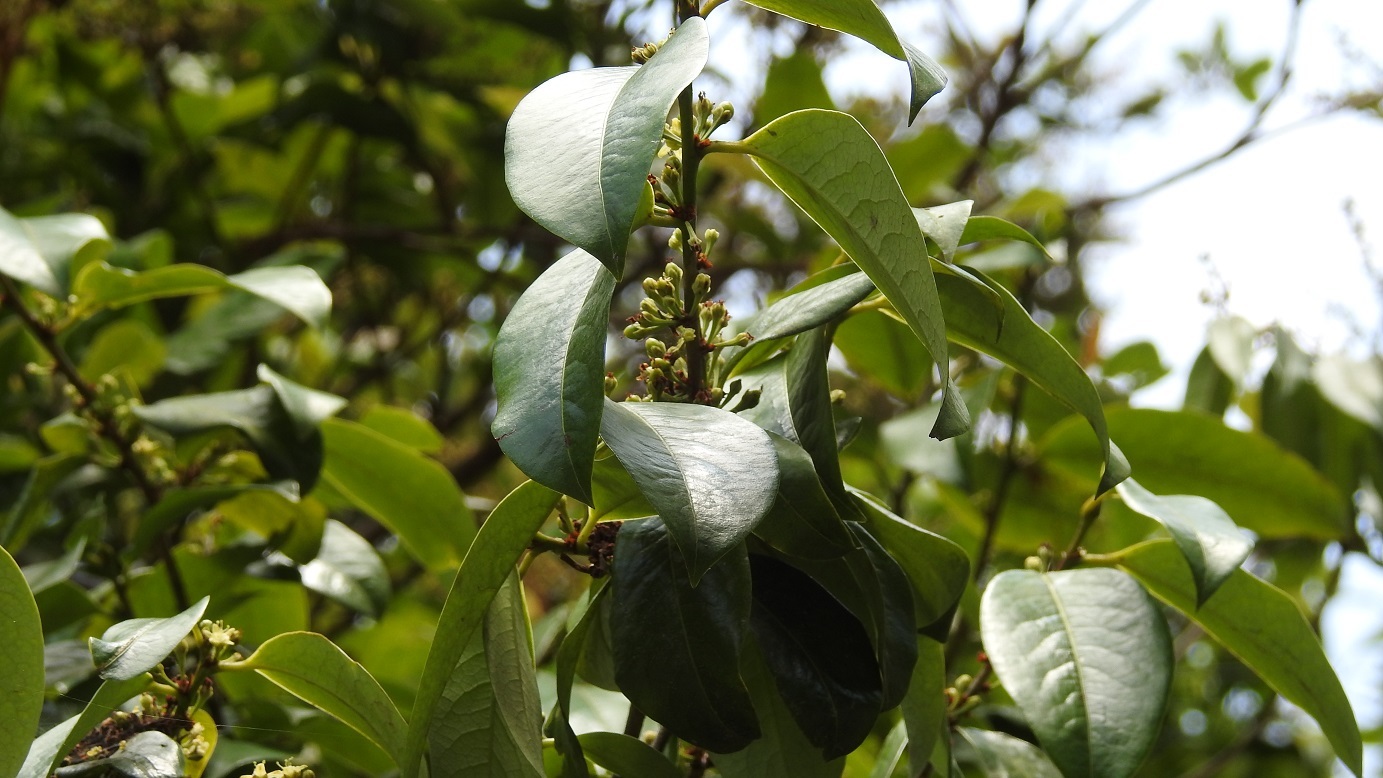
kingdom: Plantae
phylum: Tracheophyta
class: Magnoliopsida
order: Malpighiales
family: Erythroxylaceae
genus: Erythroxylum
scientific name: Erythroxylum macrophyllum
